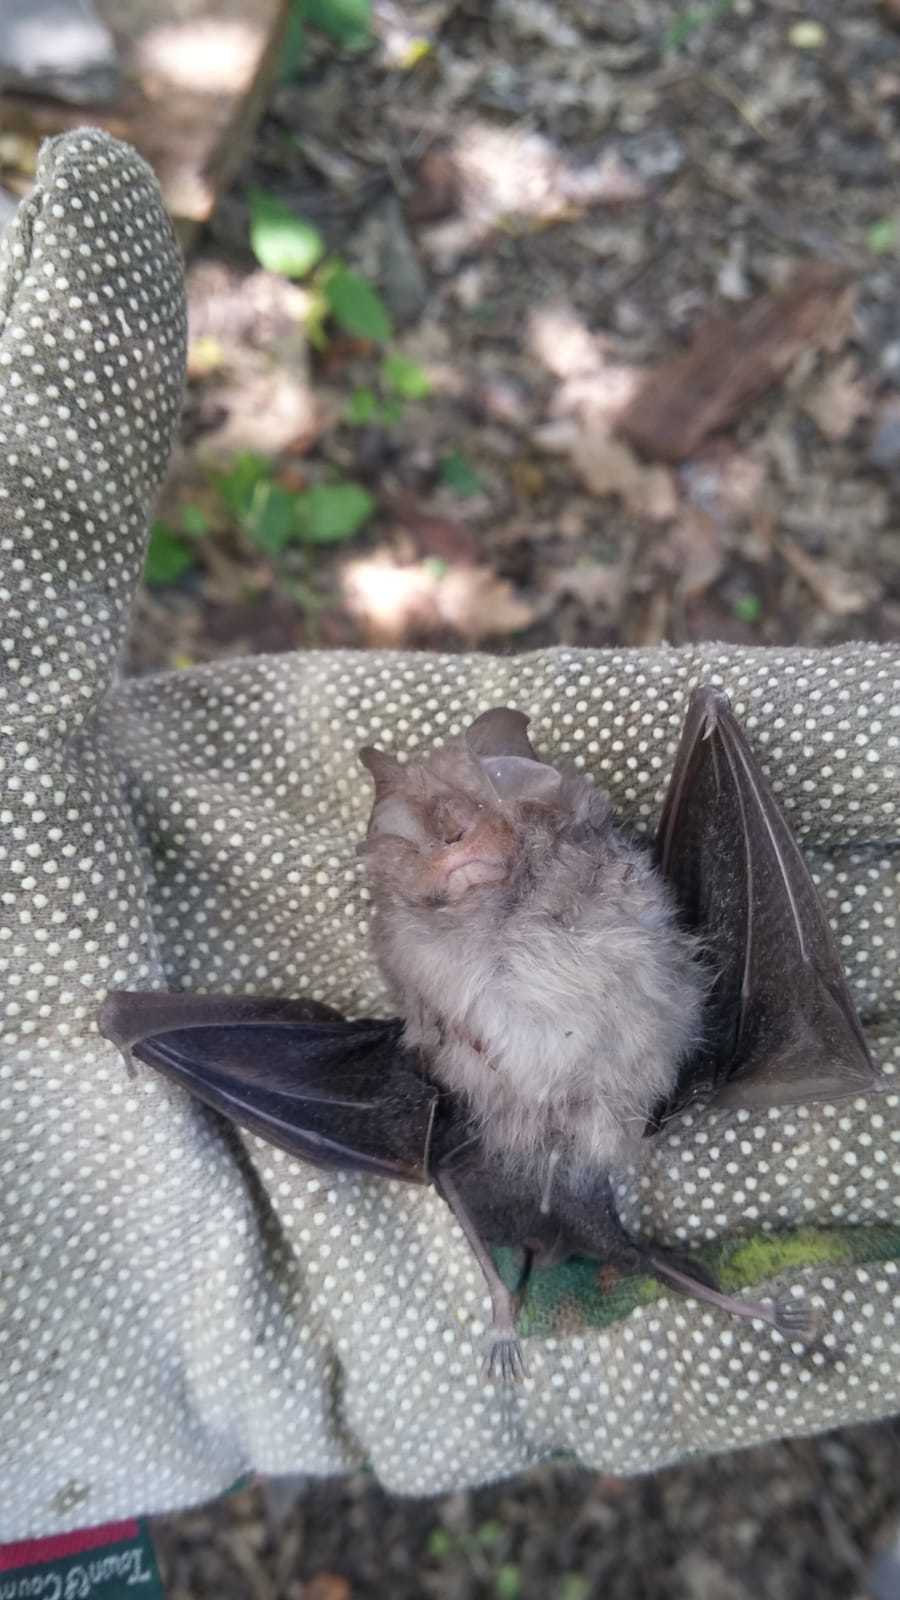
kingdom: Animalia
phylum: Chordata
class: Mammalia
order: Chiroptera
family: Rhinolophidae
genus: Rhinolophus
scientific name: Rhinolophus hipposideros
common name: Lesser horseshoe bat
